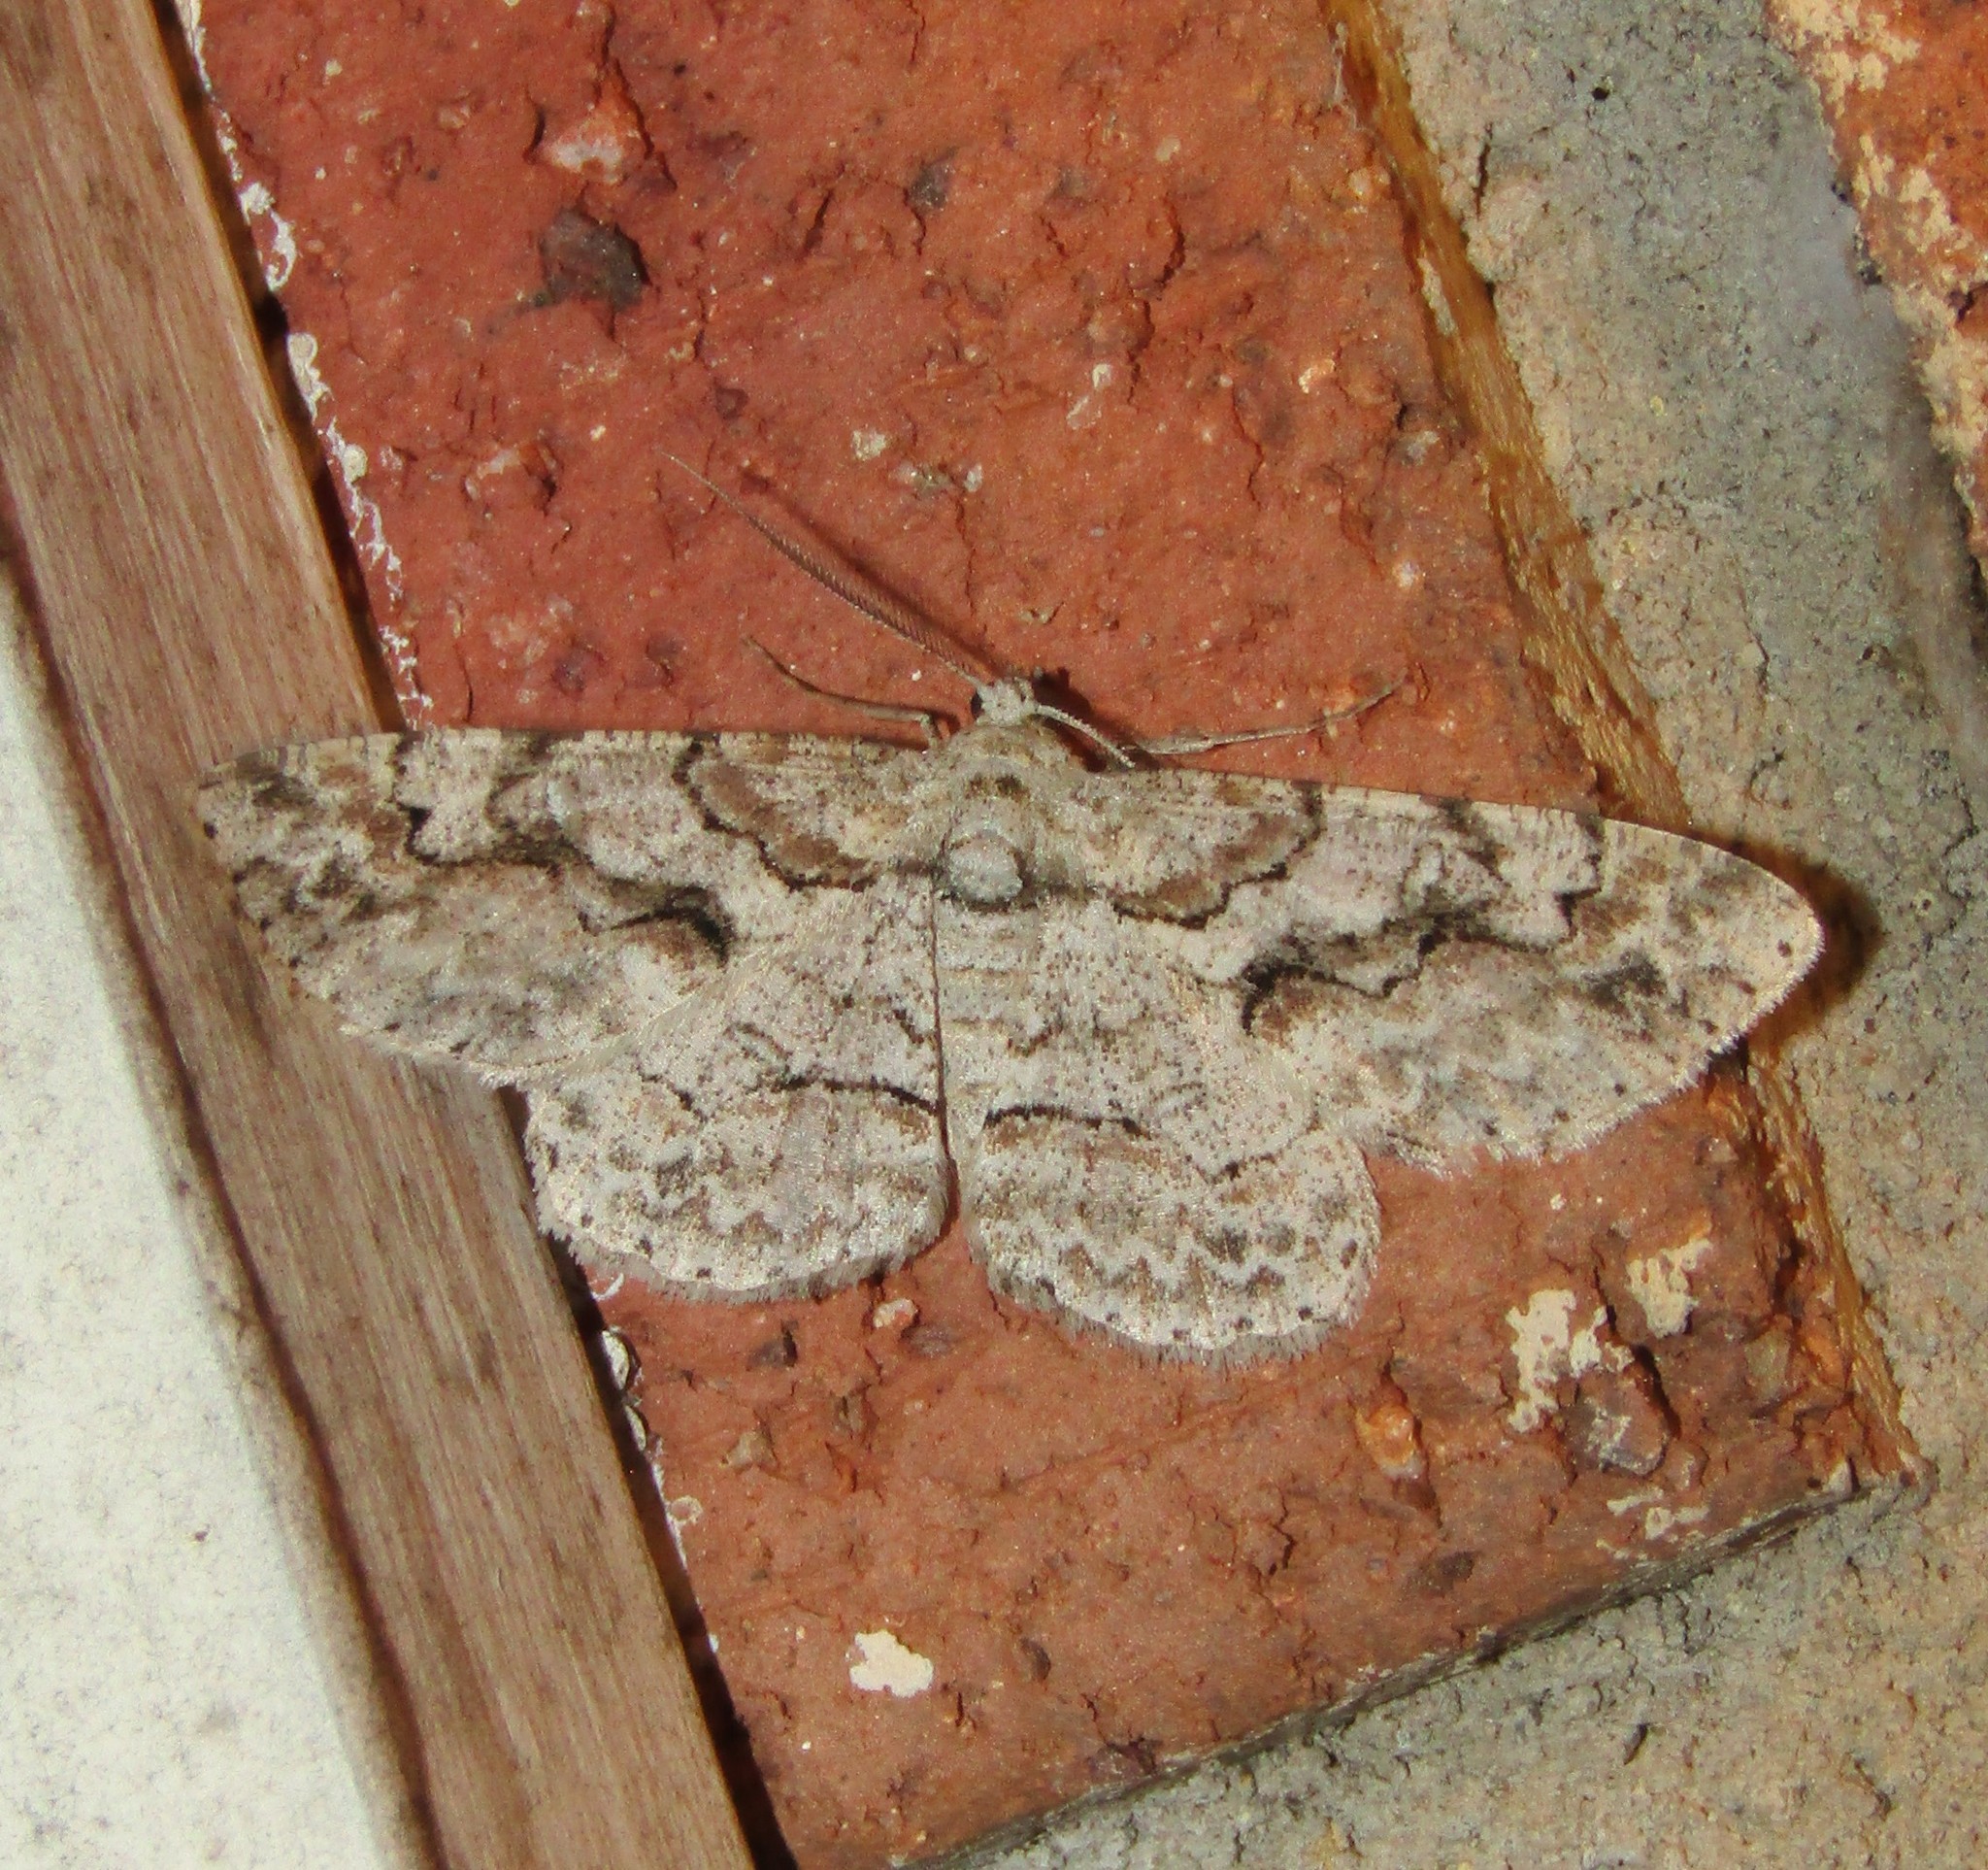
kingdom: Animalia
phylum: Arthropoda
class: Insecta
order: Lepidoptera
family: Geometridae
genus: Iridopsis
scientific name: Iridopsis defectaria
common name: Brown-shaded gray
